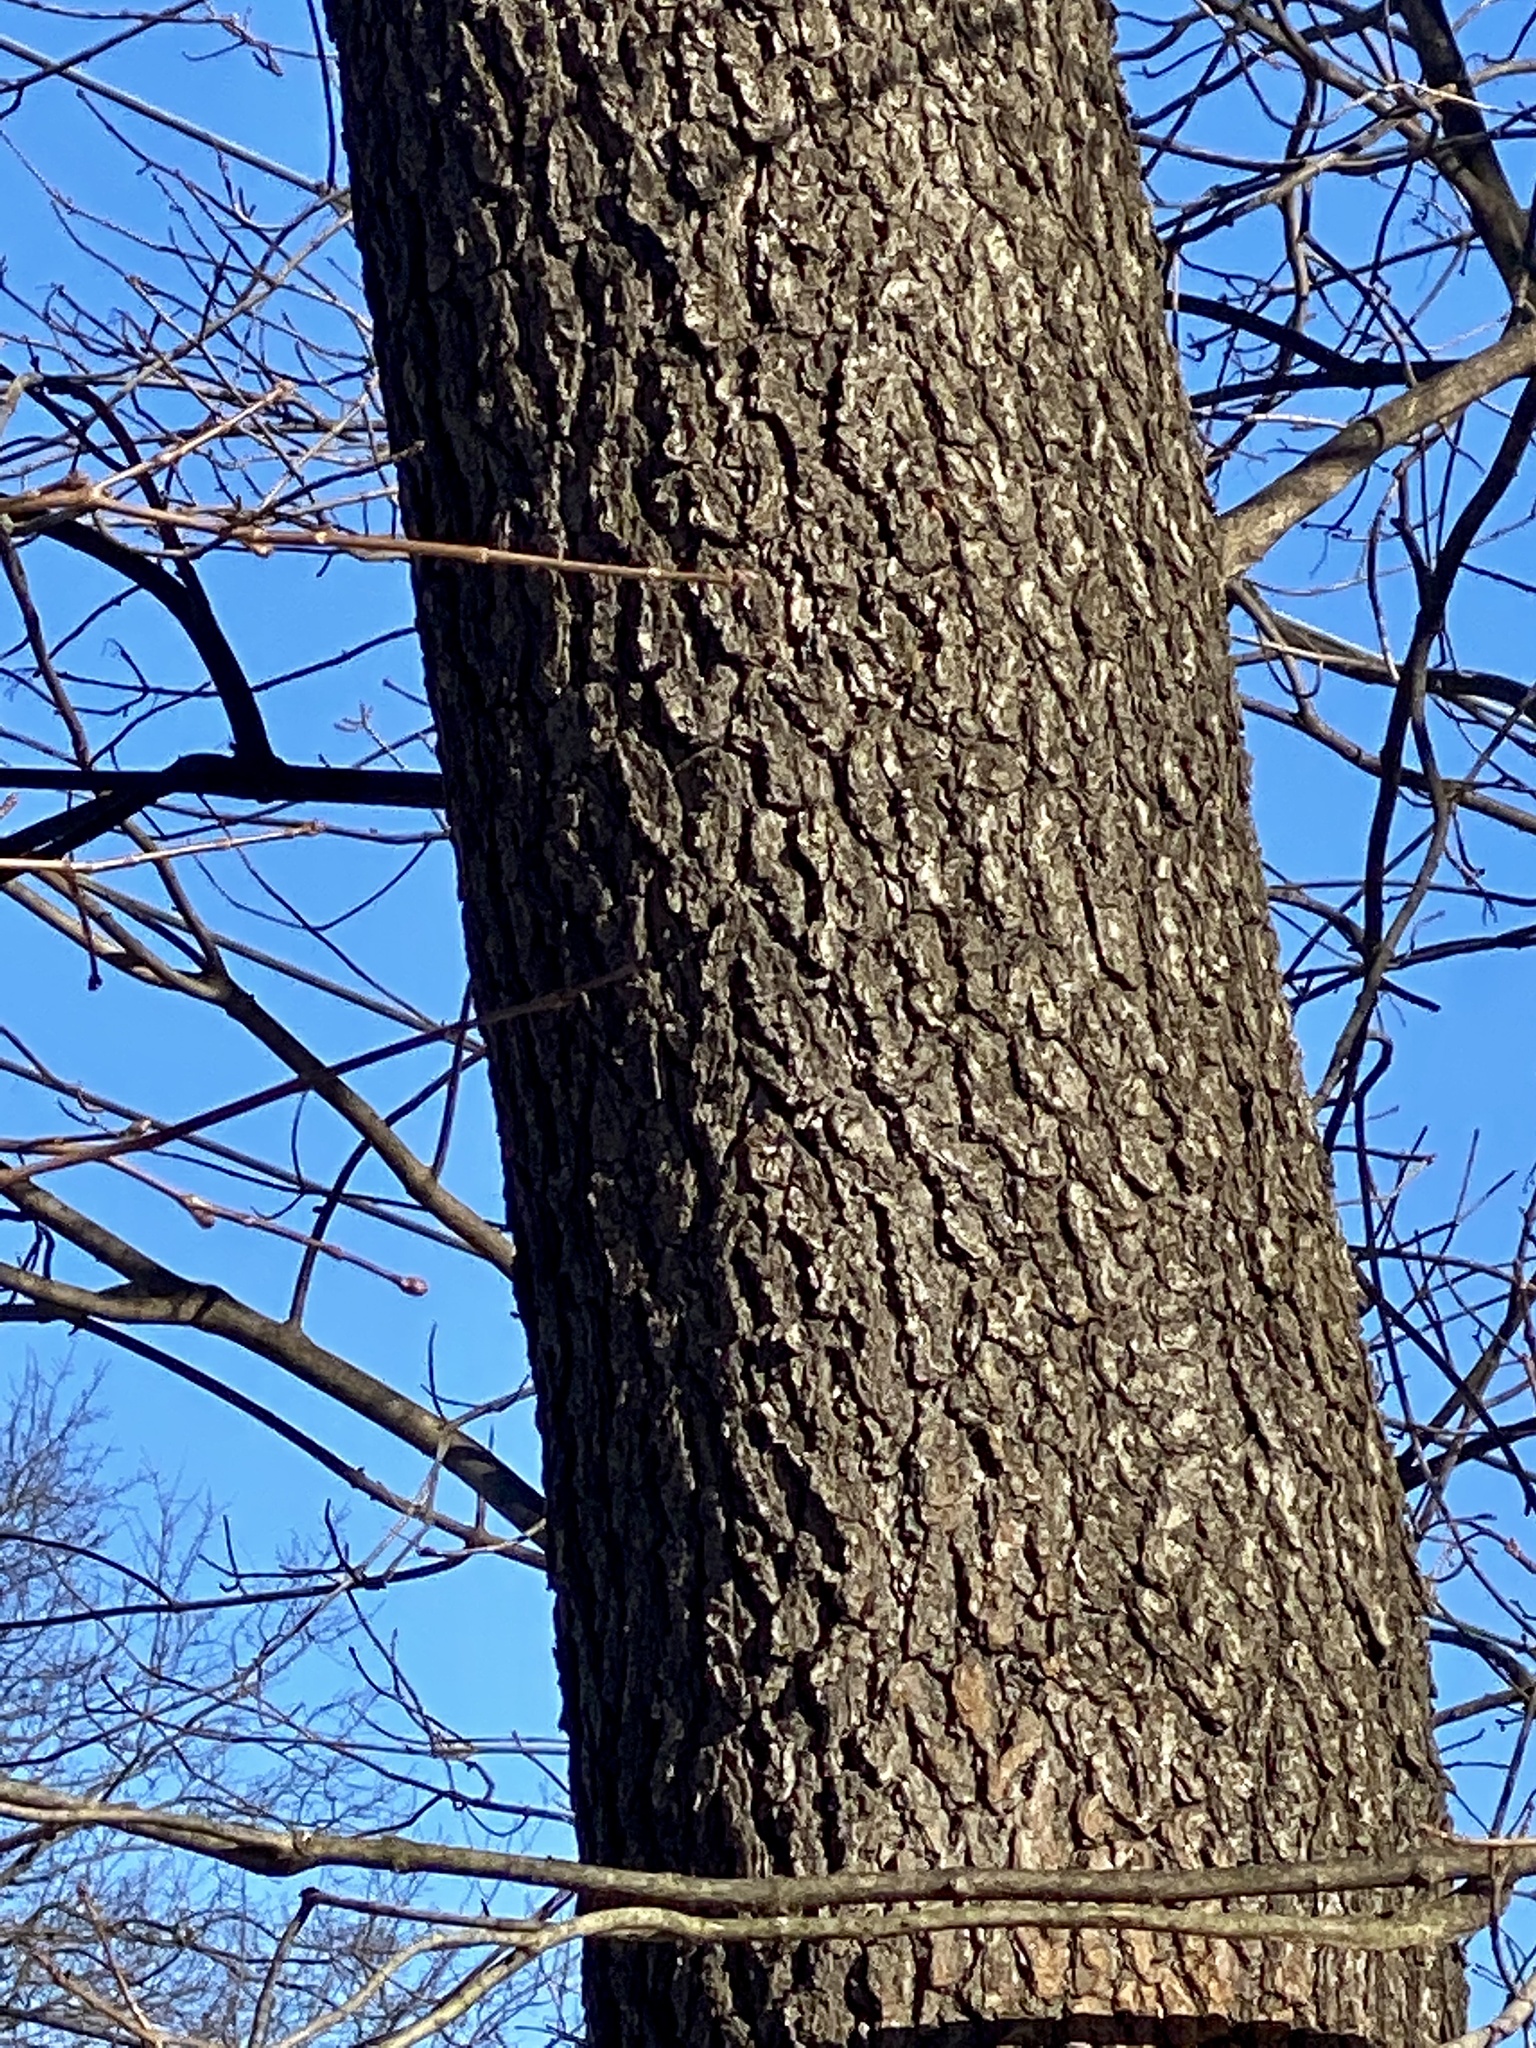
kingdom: Plantae
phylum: Tracheophyta
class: Magnoliopsida
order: Rosales
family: Rosaceae
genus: Prunus
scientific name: Prunus serotina
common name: Black cherry
